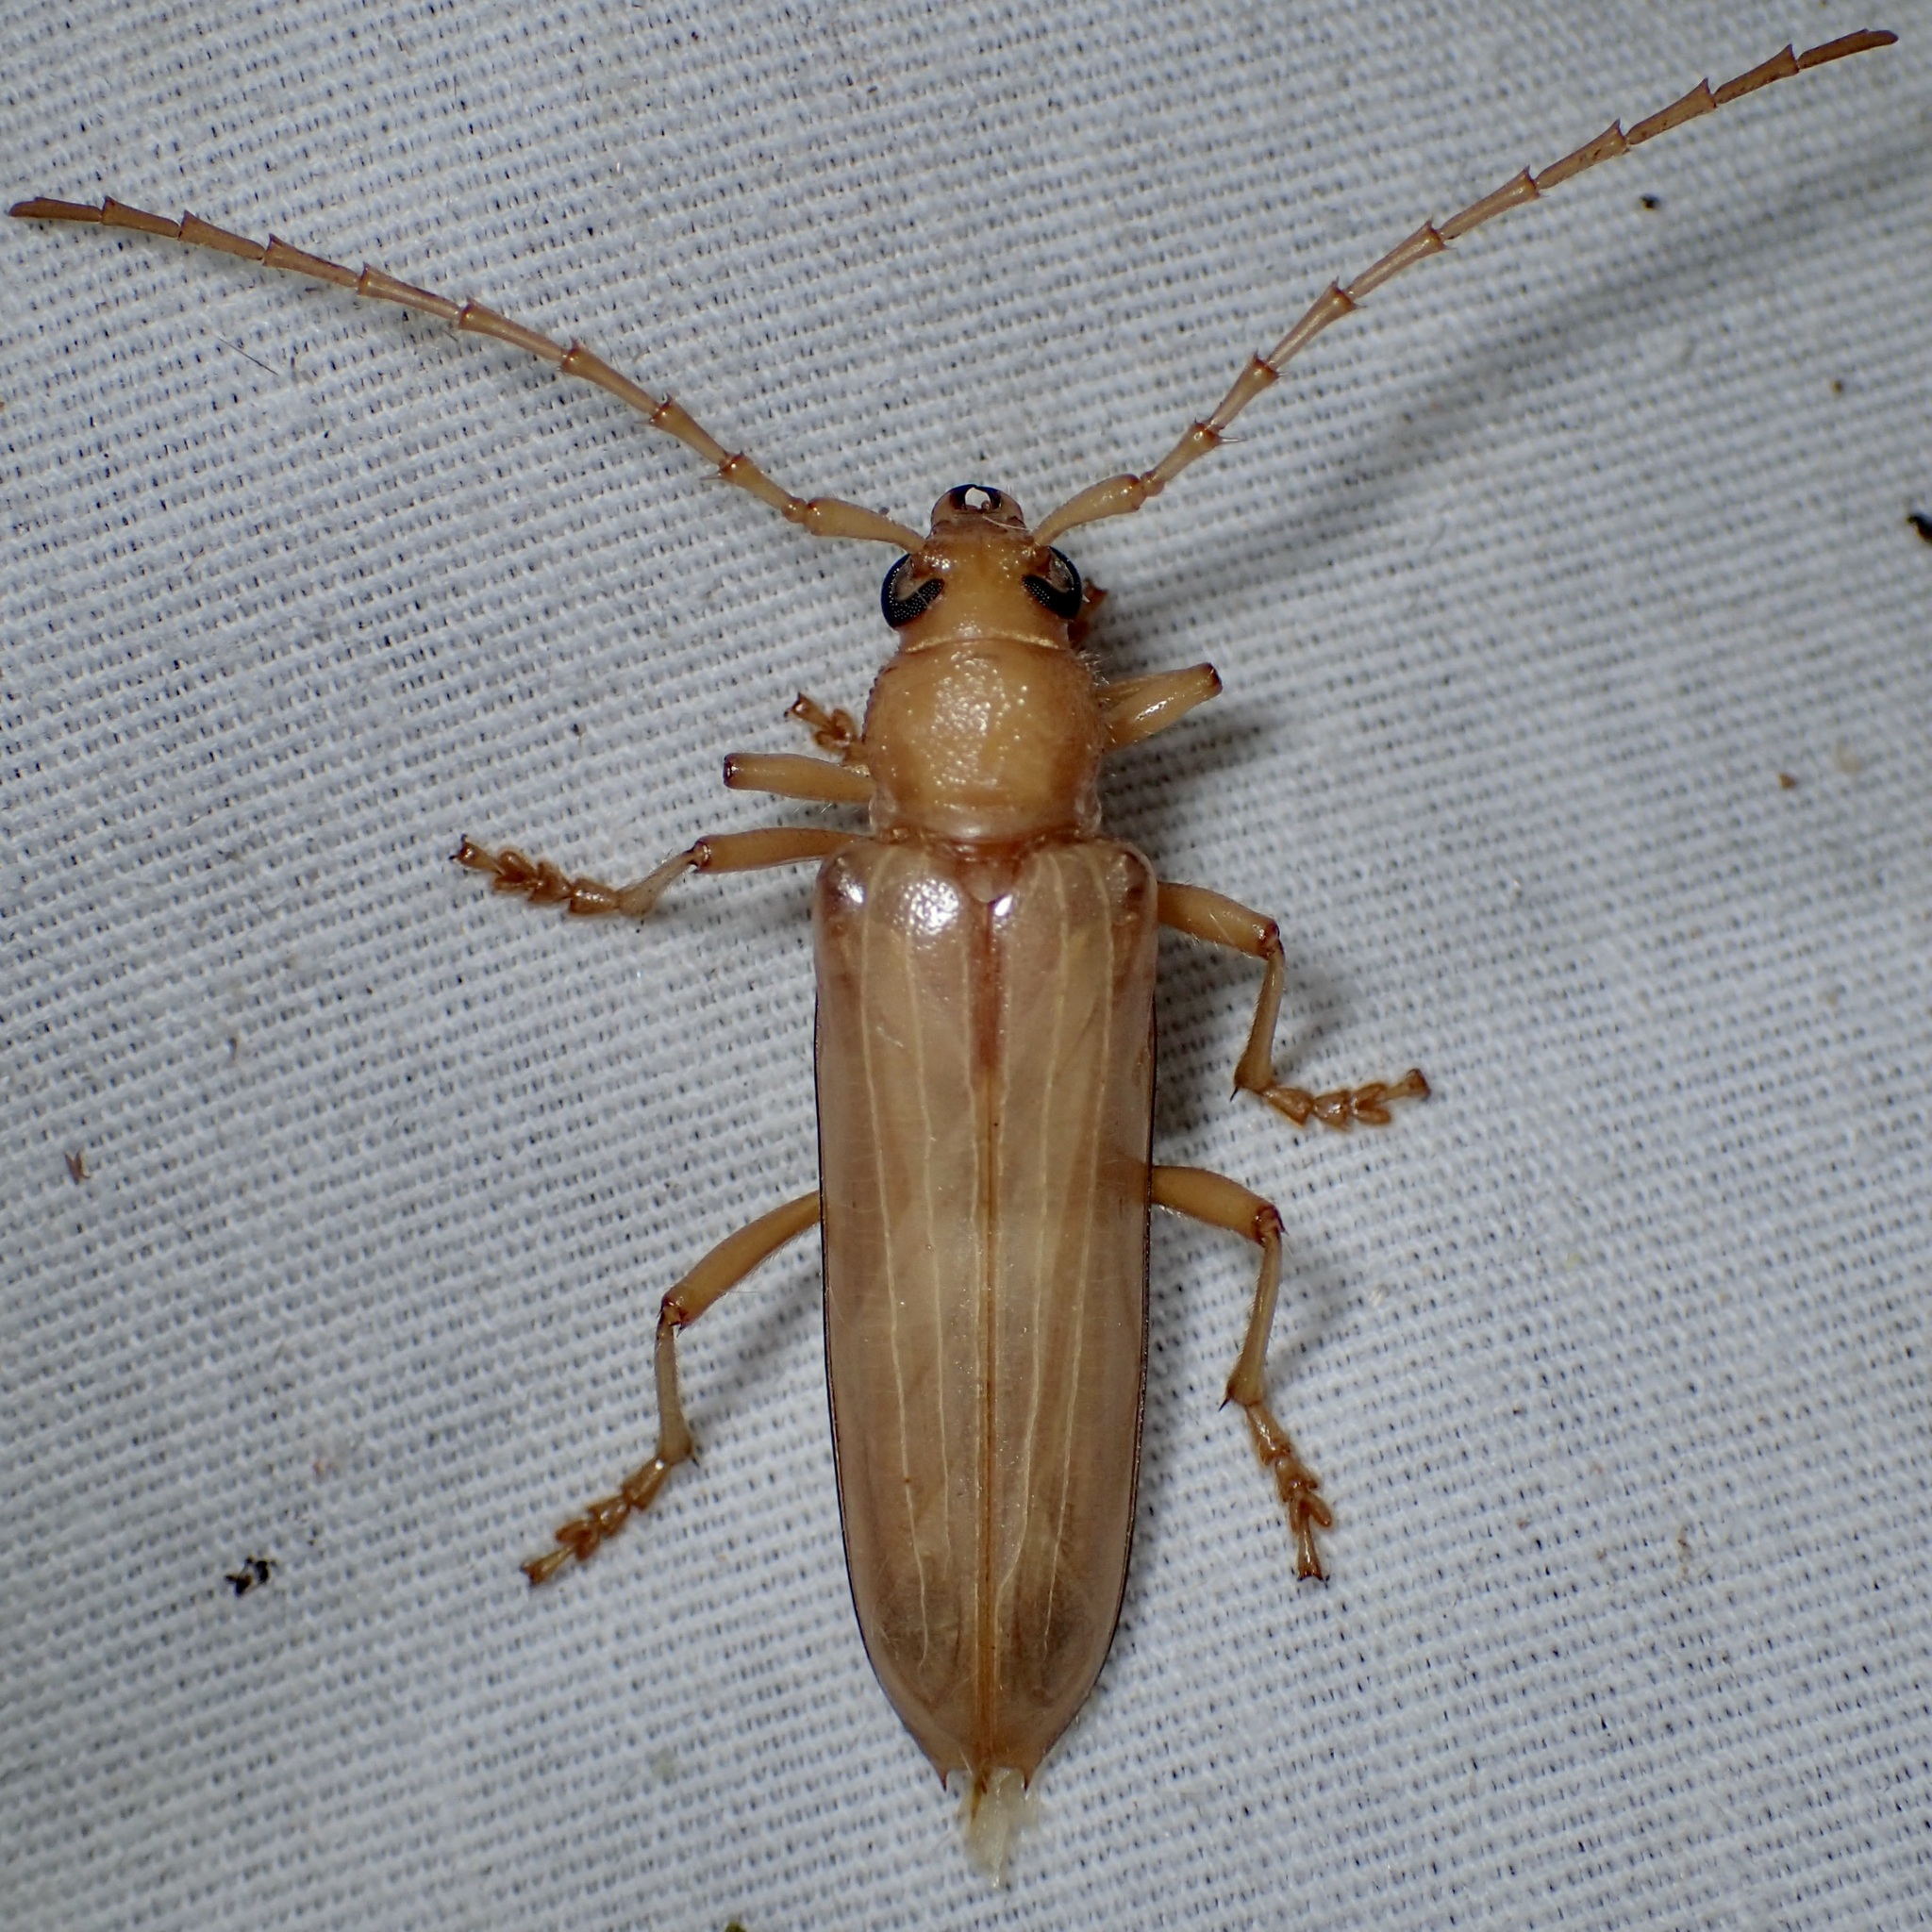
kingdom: Animalia
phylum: Arthropoda
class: Insecta
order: Coleoptera
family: Cerambycidae
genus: Atylostagma
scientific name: Atylostagma polita
